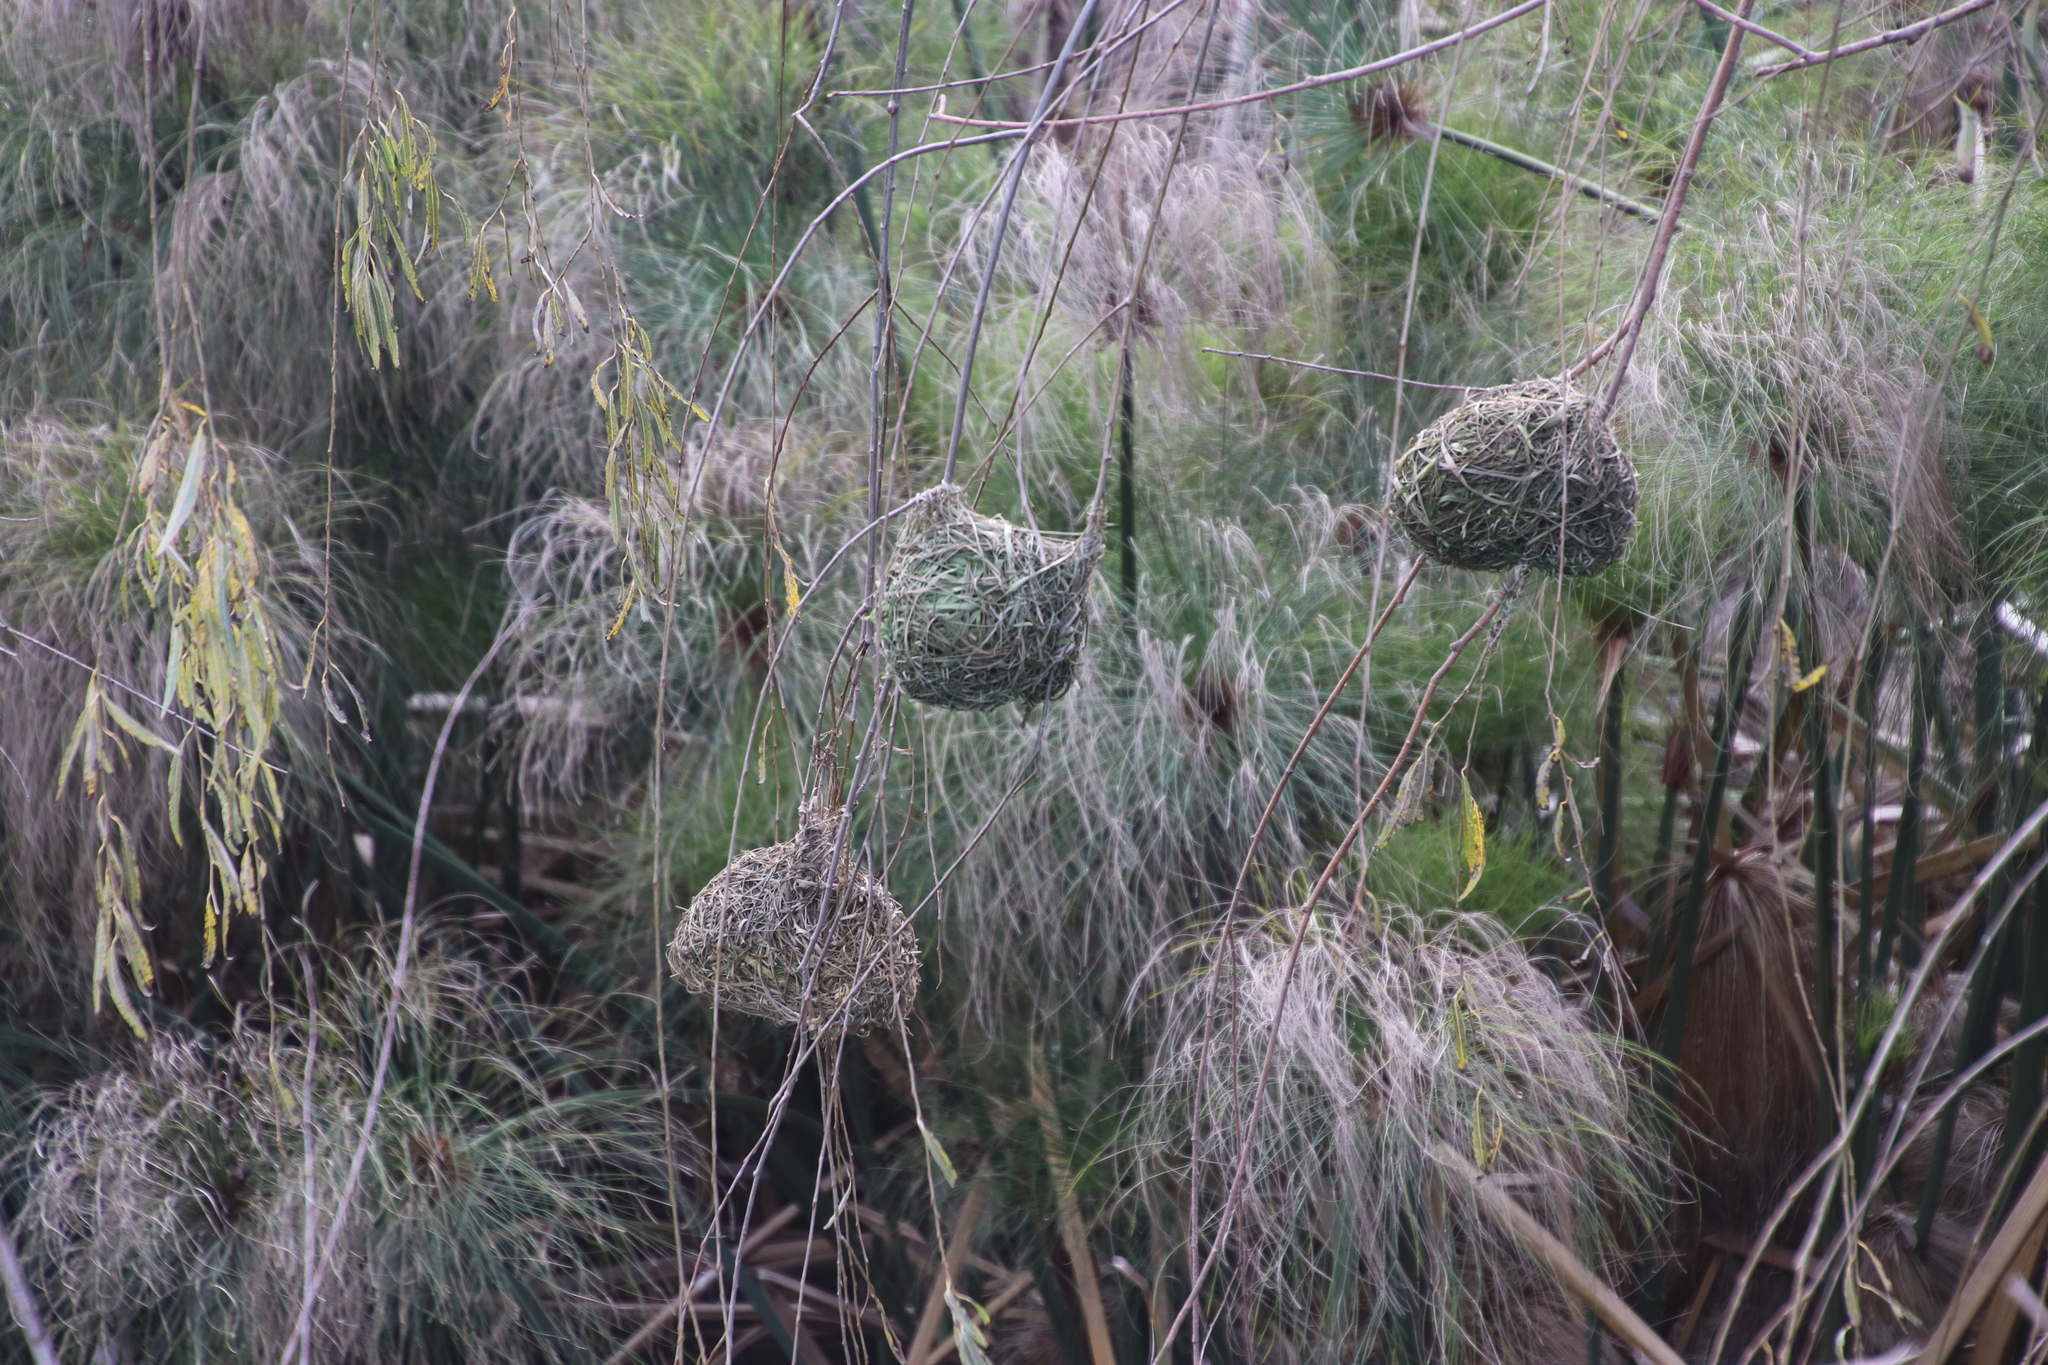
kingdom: Animalia
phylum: Chordata
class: Aves
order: Passeriformes
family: Ploceidae
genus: Ploceus
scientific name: Ploceus capensis
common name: Cape weaver
